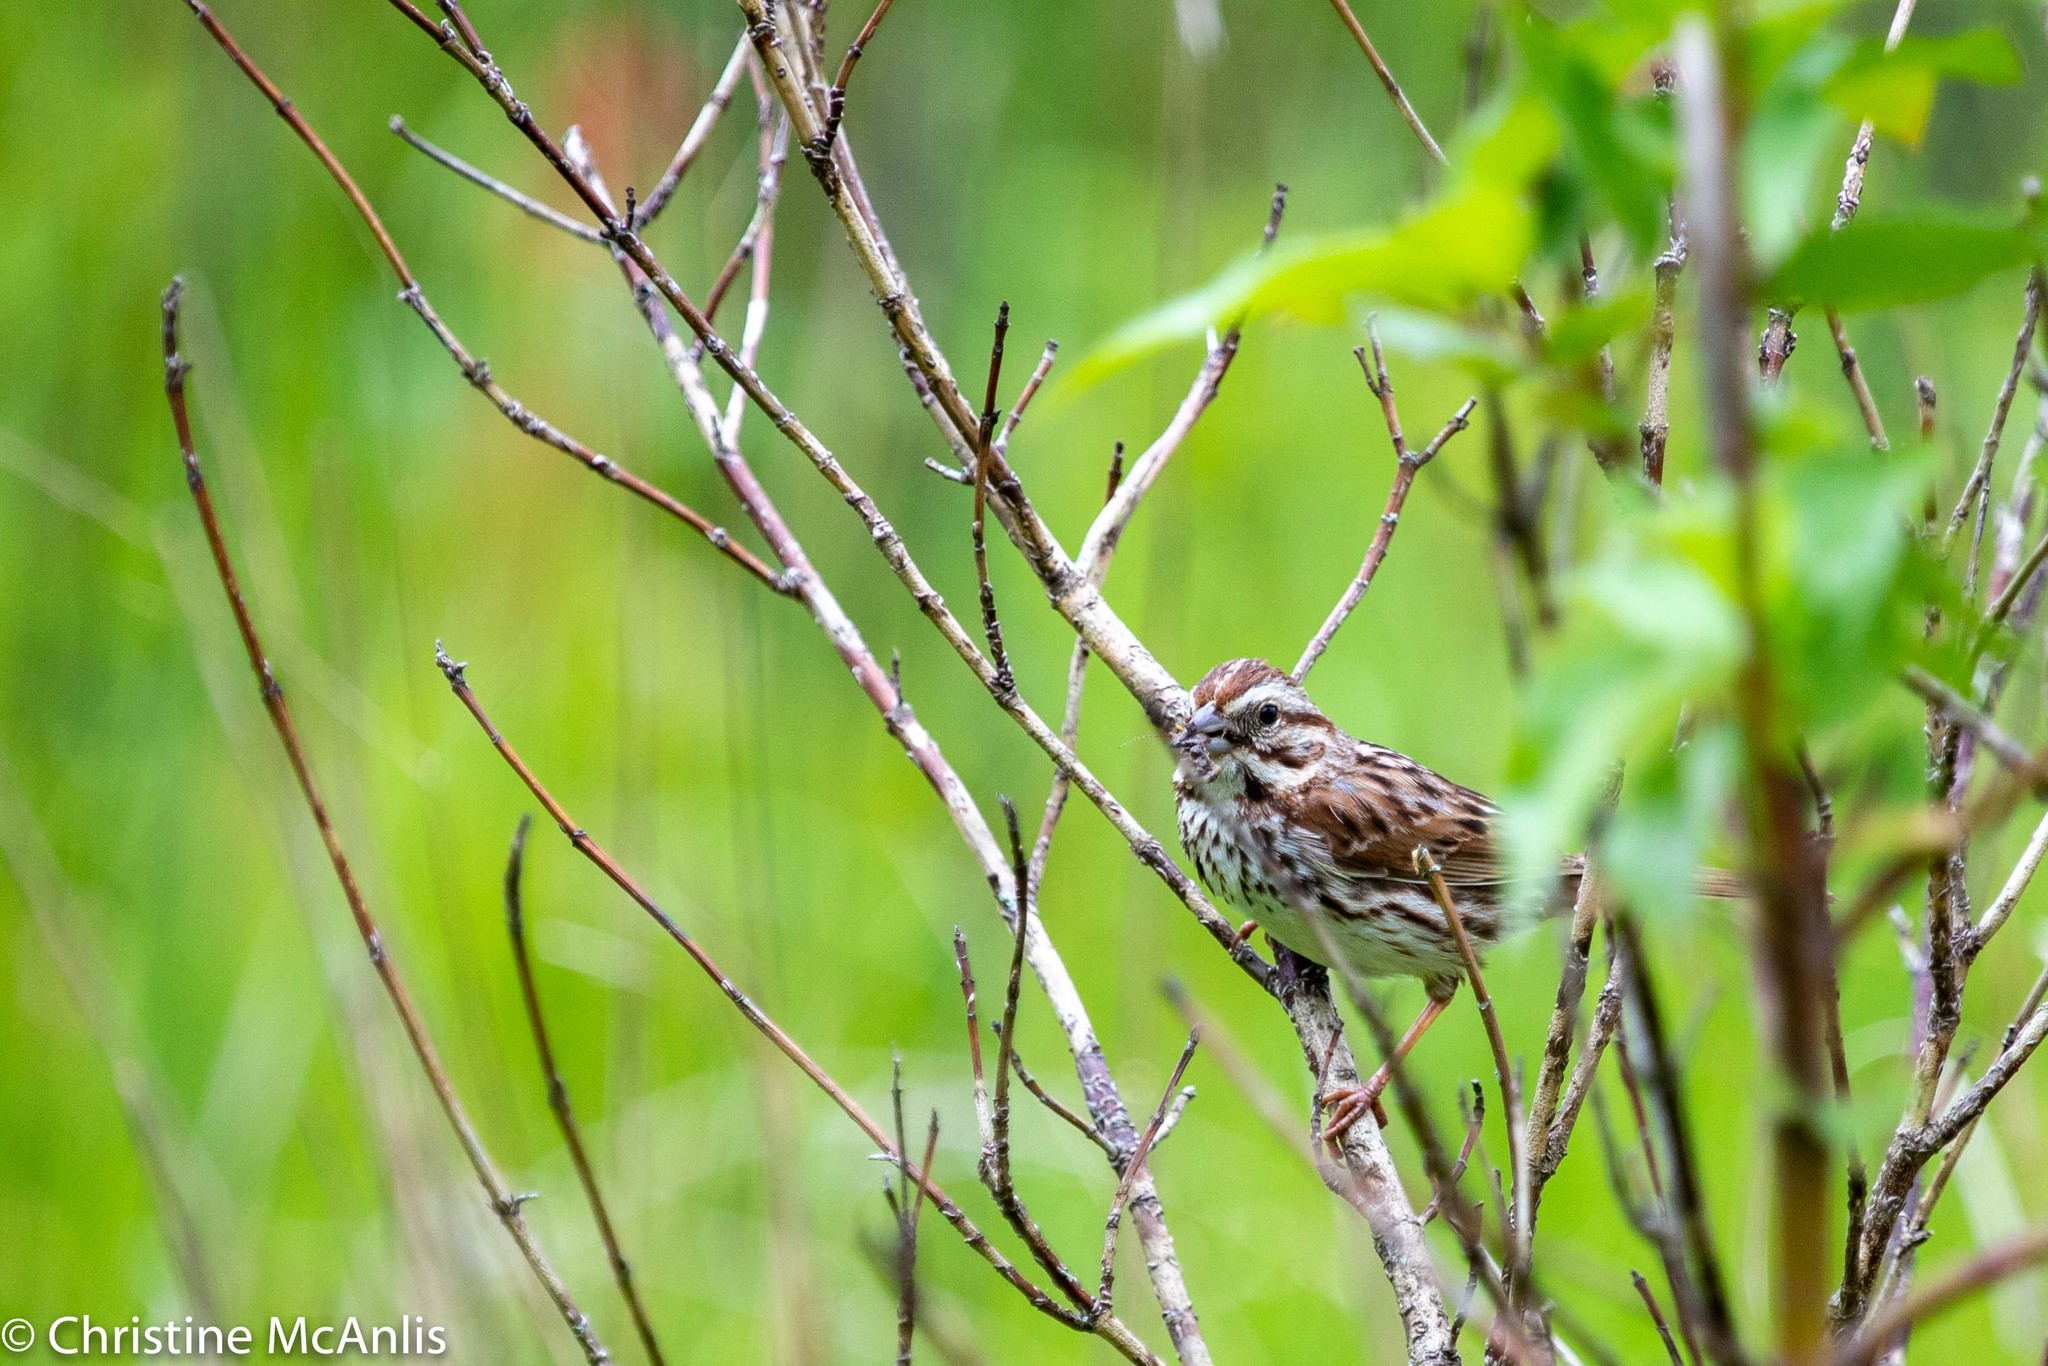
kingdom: Animalia
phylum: Chordata
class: Aves
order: Passeriformes
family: Passerellidae
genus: Melospiza
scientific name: Melospiza melodia
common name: Song sparrow
